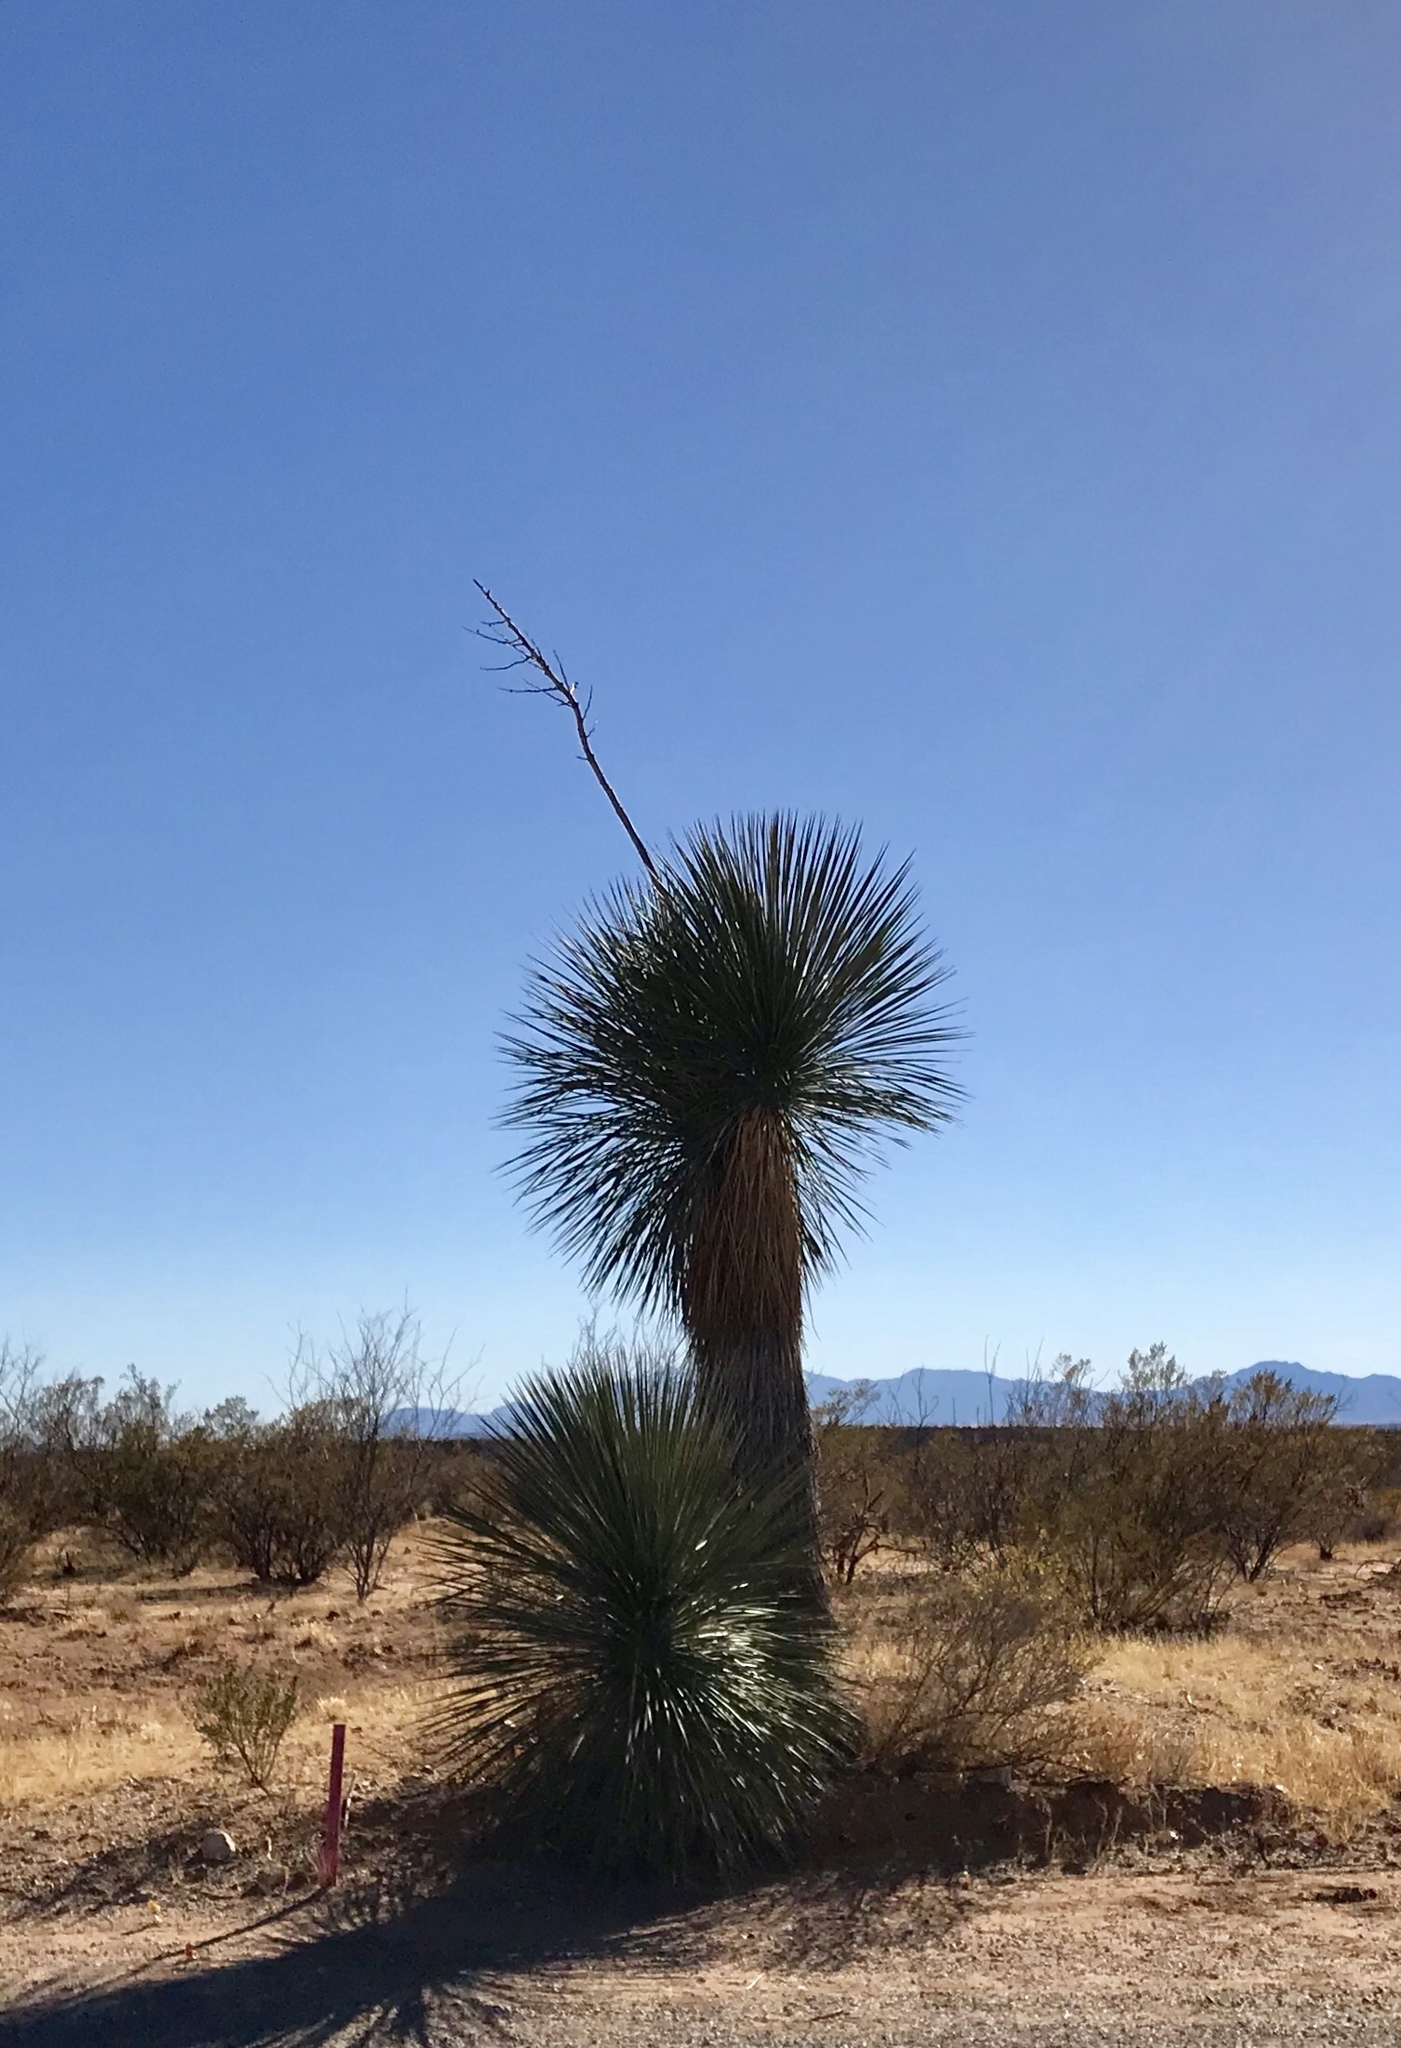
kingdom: Plantae
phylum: Tracheophyta
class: Liliopsida
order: Asparagales
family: Asparagaceae
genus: Yucca
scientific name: Yucca elata
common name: Palmella
